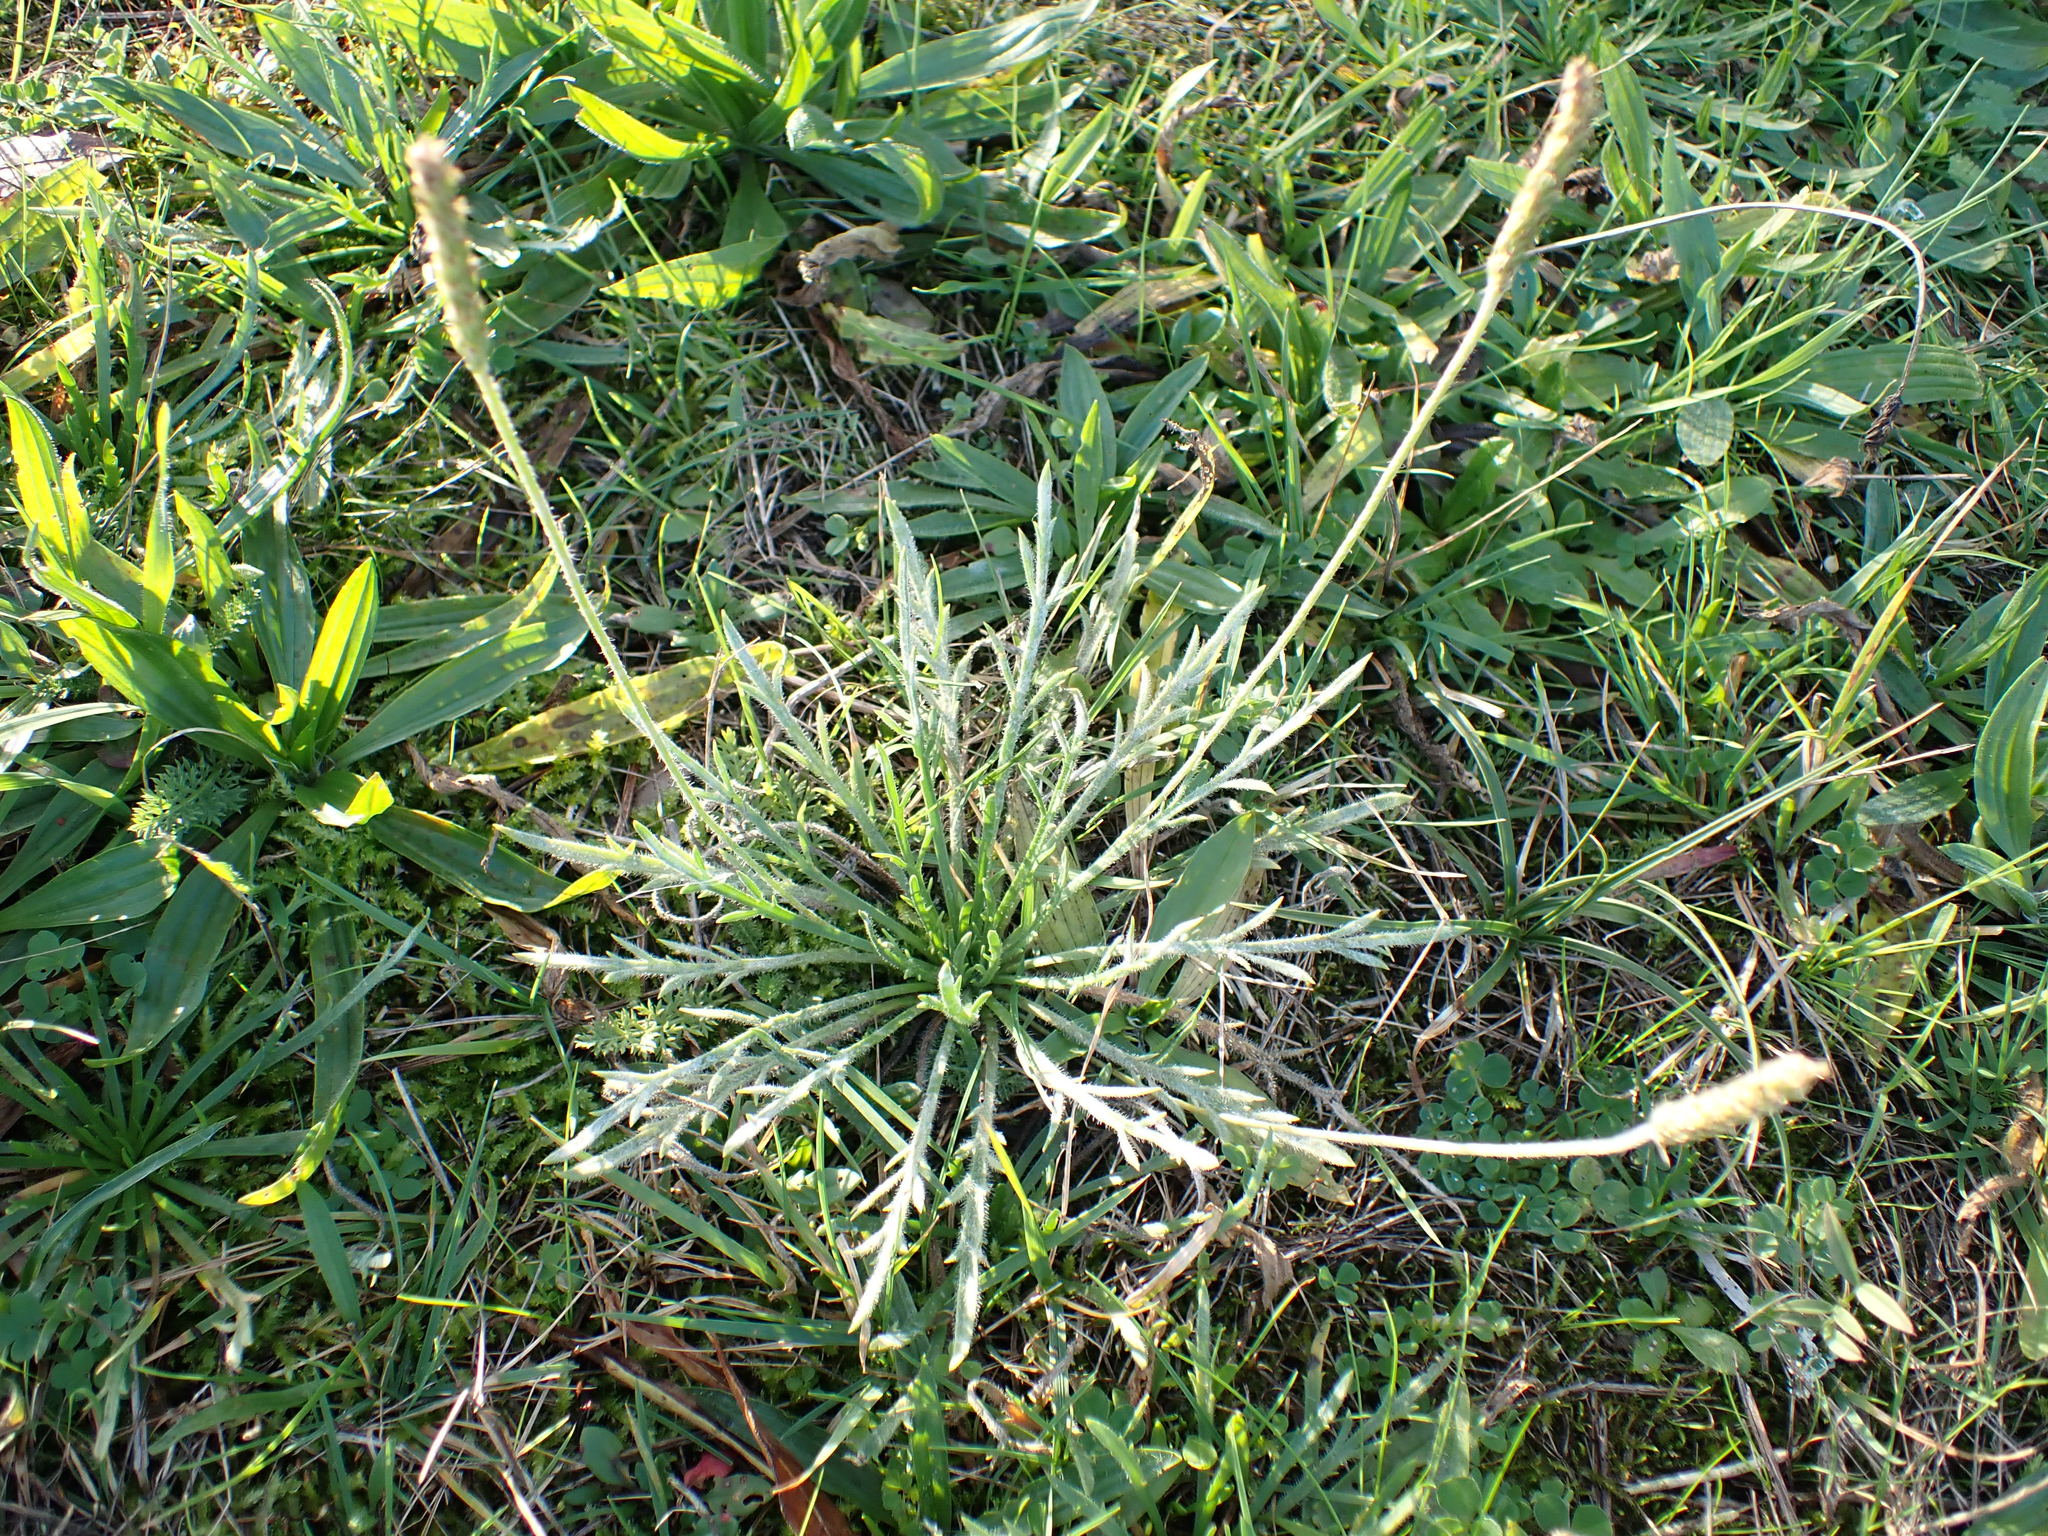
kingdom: Plantae
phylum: Tracheophyta
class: Magnoliopsida
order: Lamiales
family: Plantaginaceae
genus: Plantago
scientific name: Plantago coronopus
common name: Buck's-horn plantain
